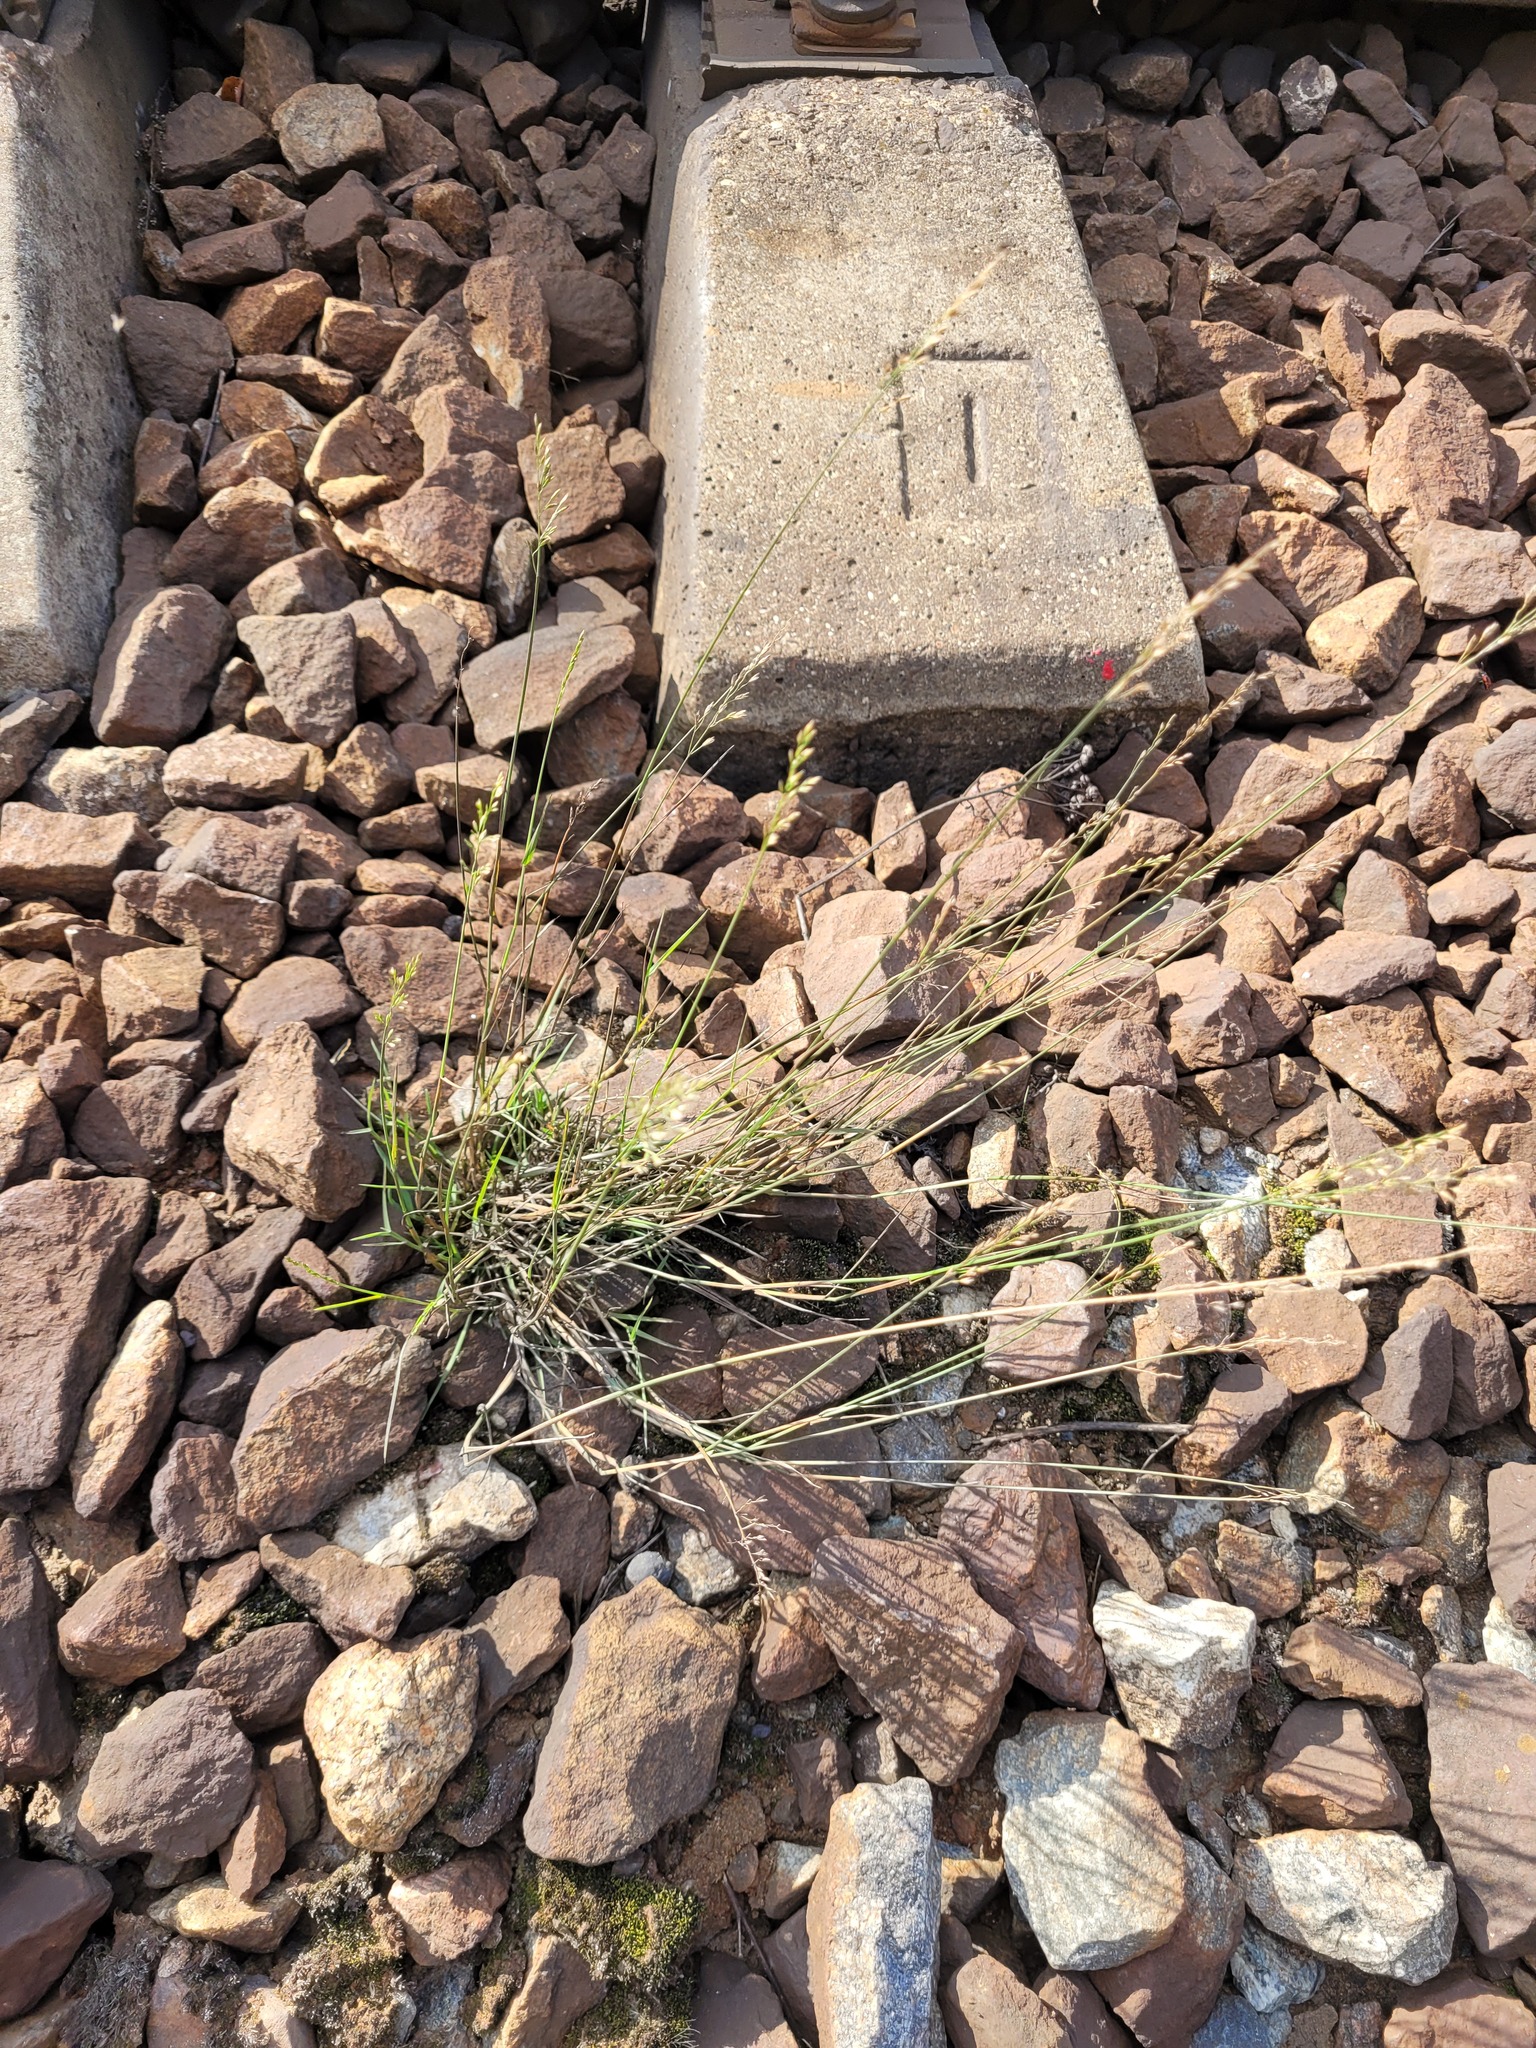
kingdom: Plantae
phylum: Tracheophyta
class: Liliopsida
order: Poales
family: Poaceae
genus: Poa
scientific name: Poa compressa
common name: Canada bluegrass
